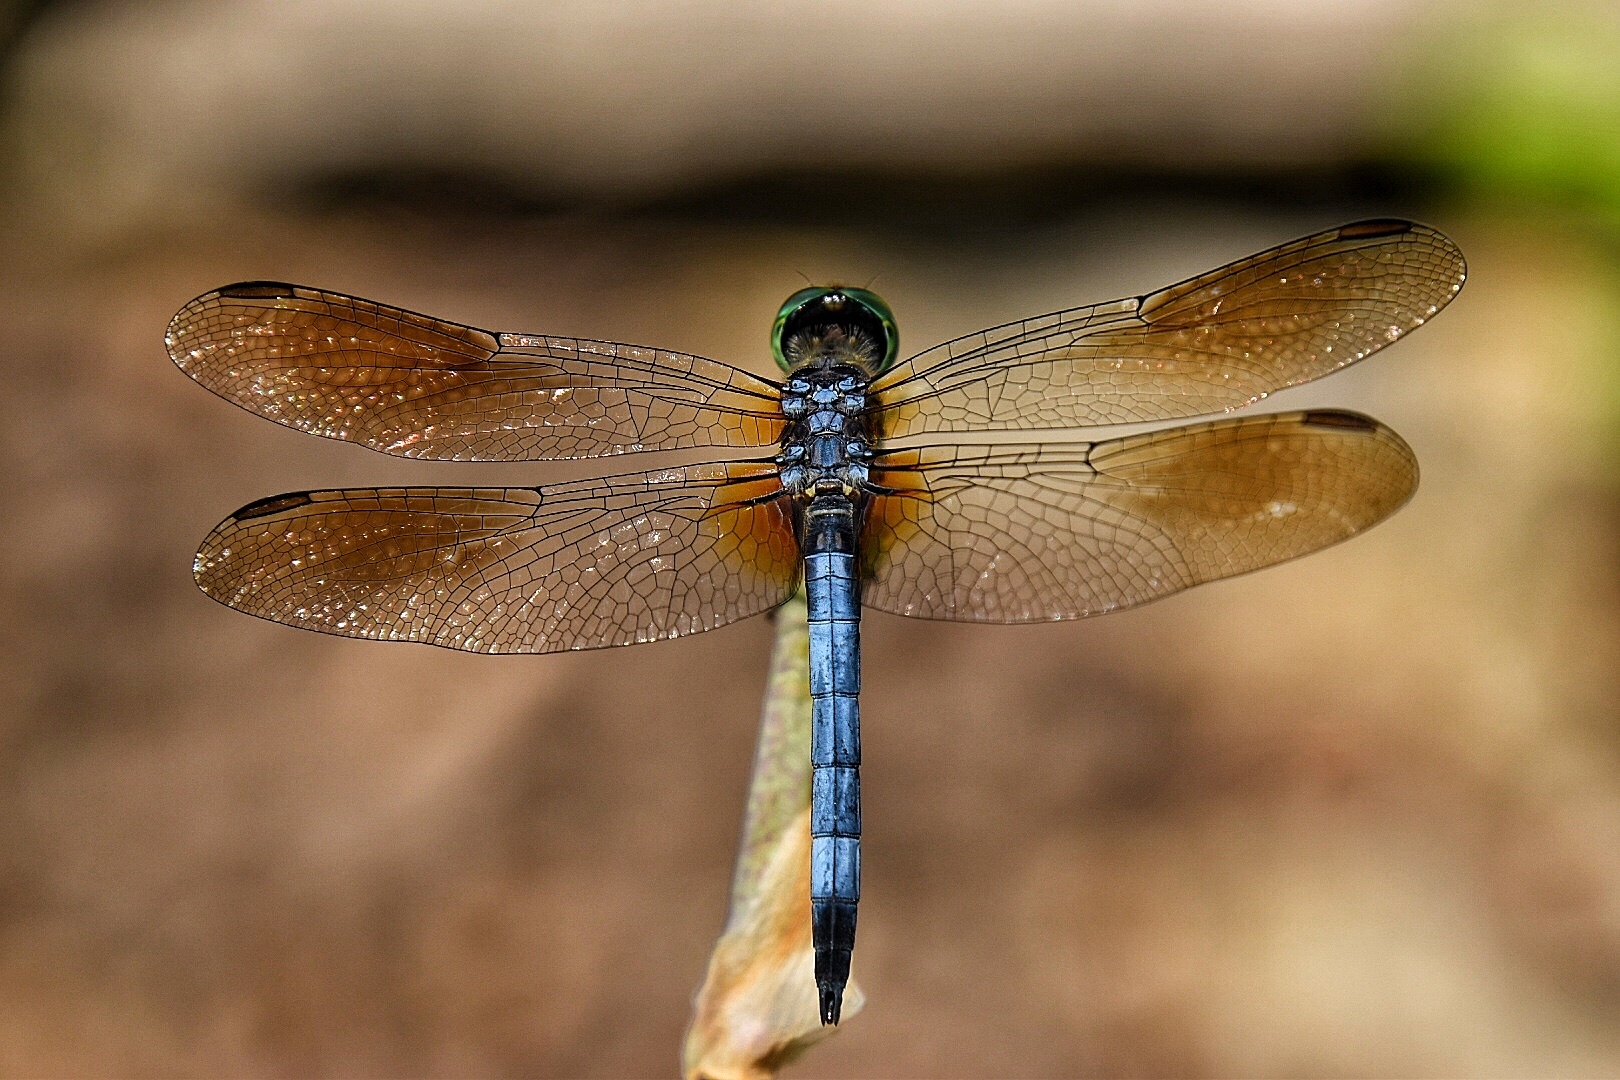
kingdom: Animalia
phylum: Arthropoda
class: Insecta
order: Odonata
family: Libellulidae
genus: Pachydiplax
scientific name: Pachydiplax longipennis
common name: Blue dasher
